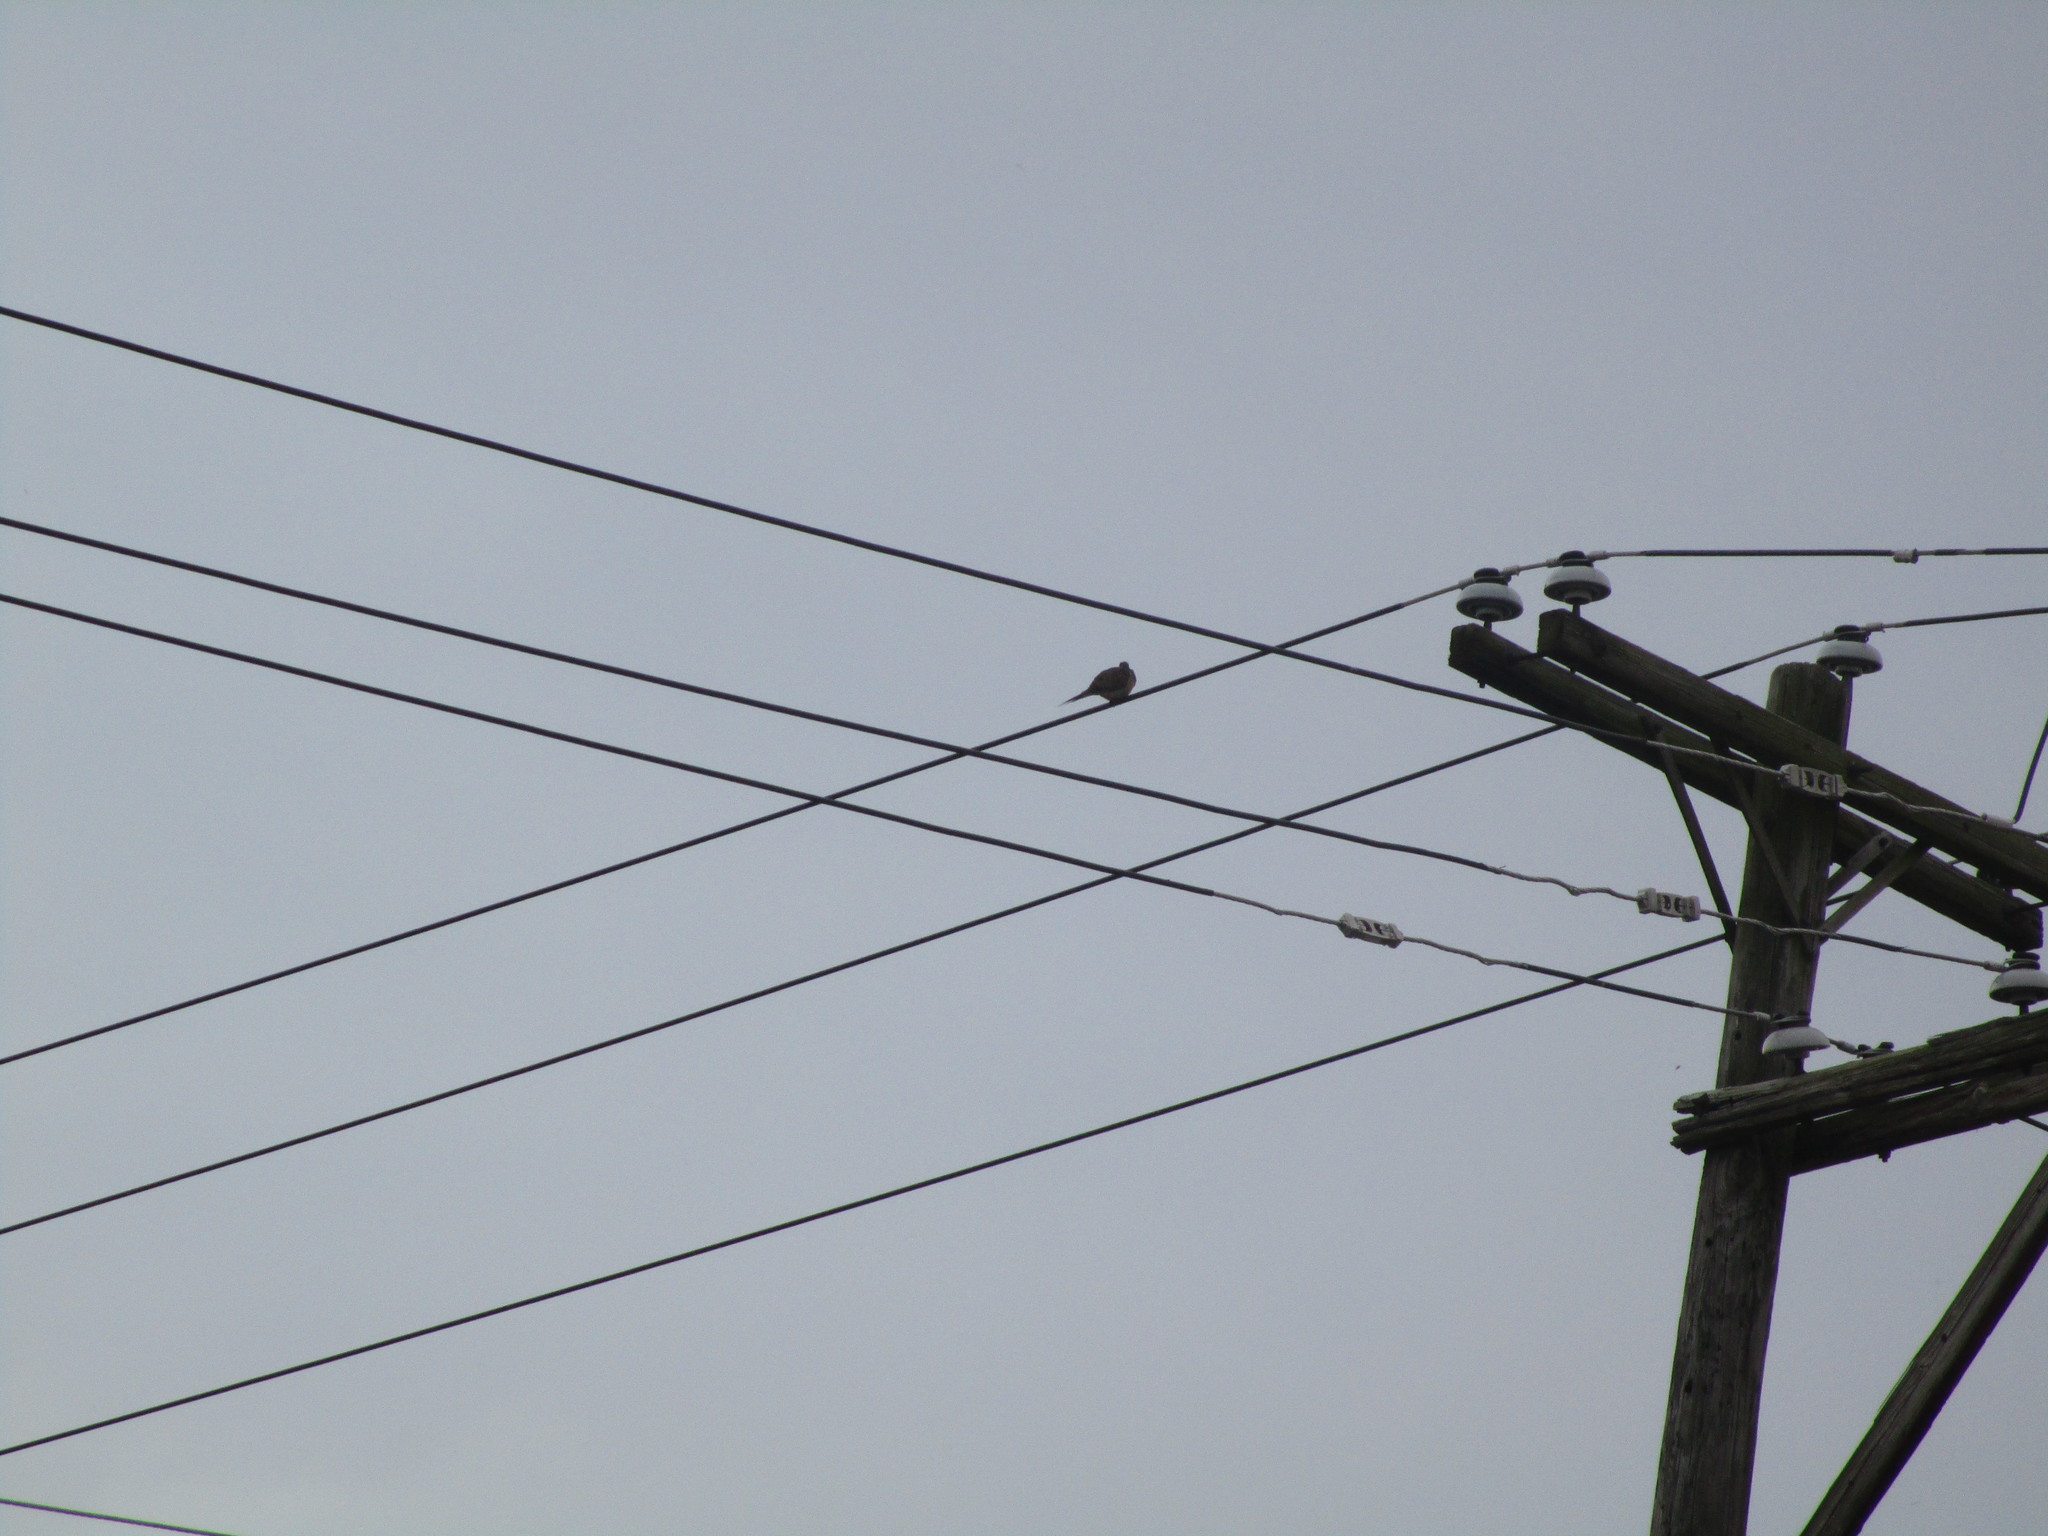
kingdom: Animalia
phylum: Chordata
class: Aves
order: Columbiformes
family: Columbidae
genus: Zenaida
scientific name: Zenaida macroura
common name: Mourning dove
